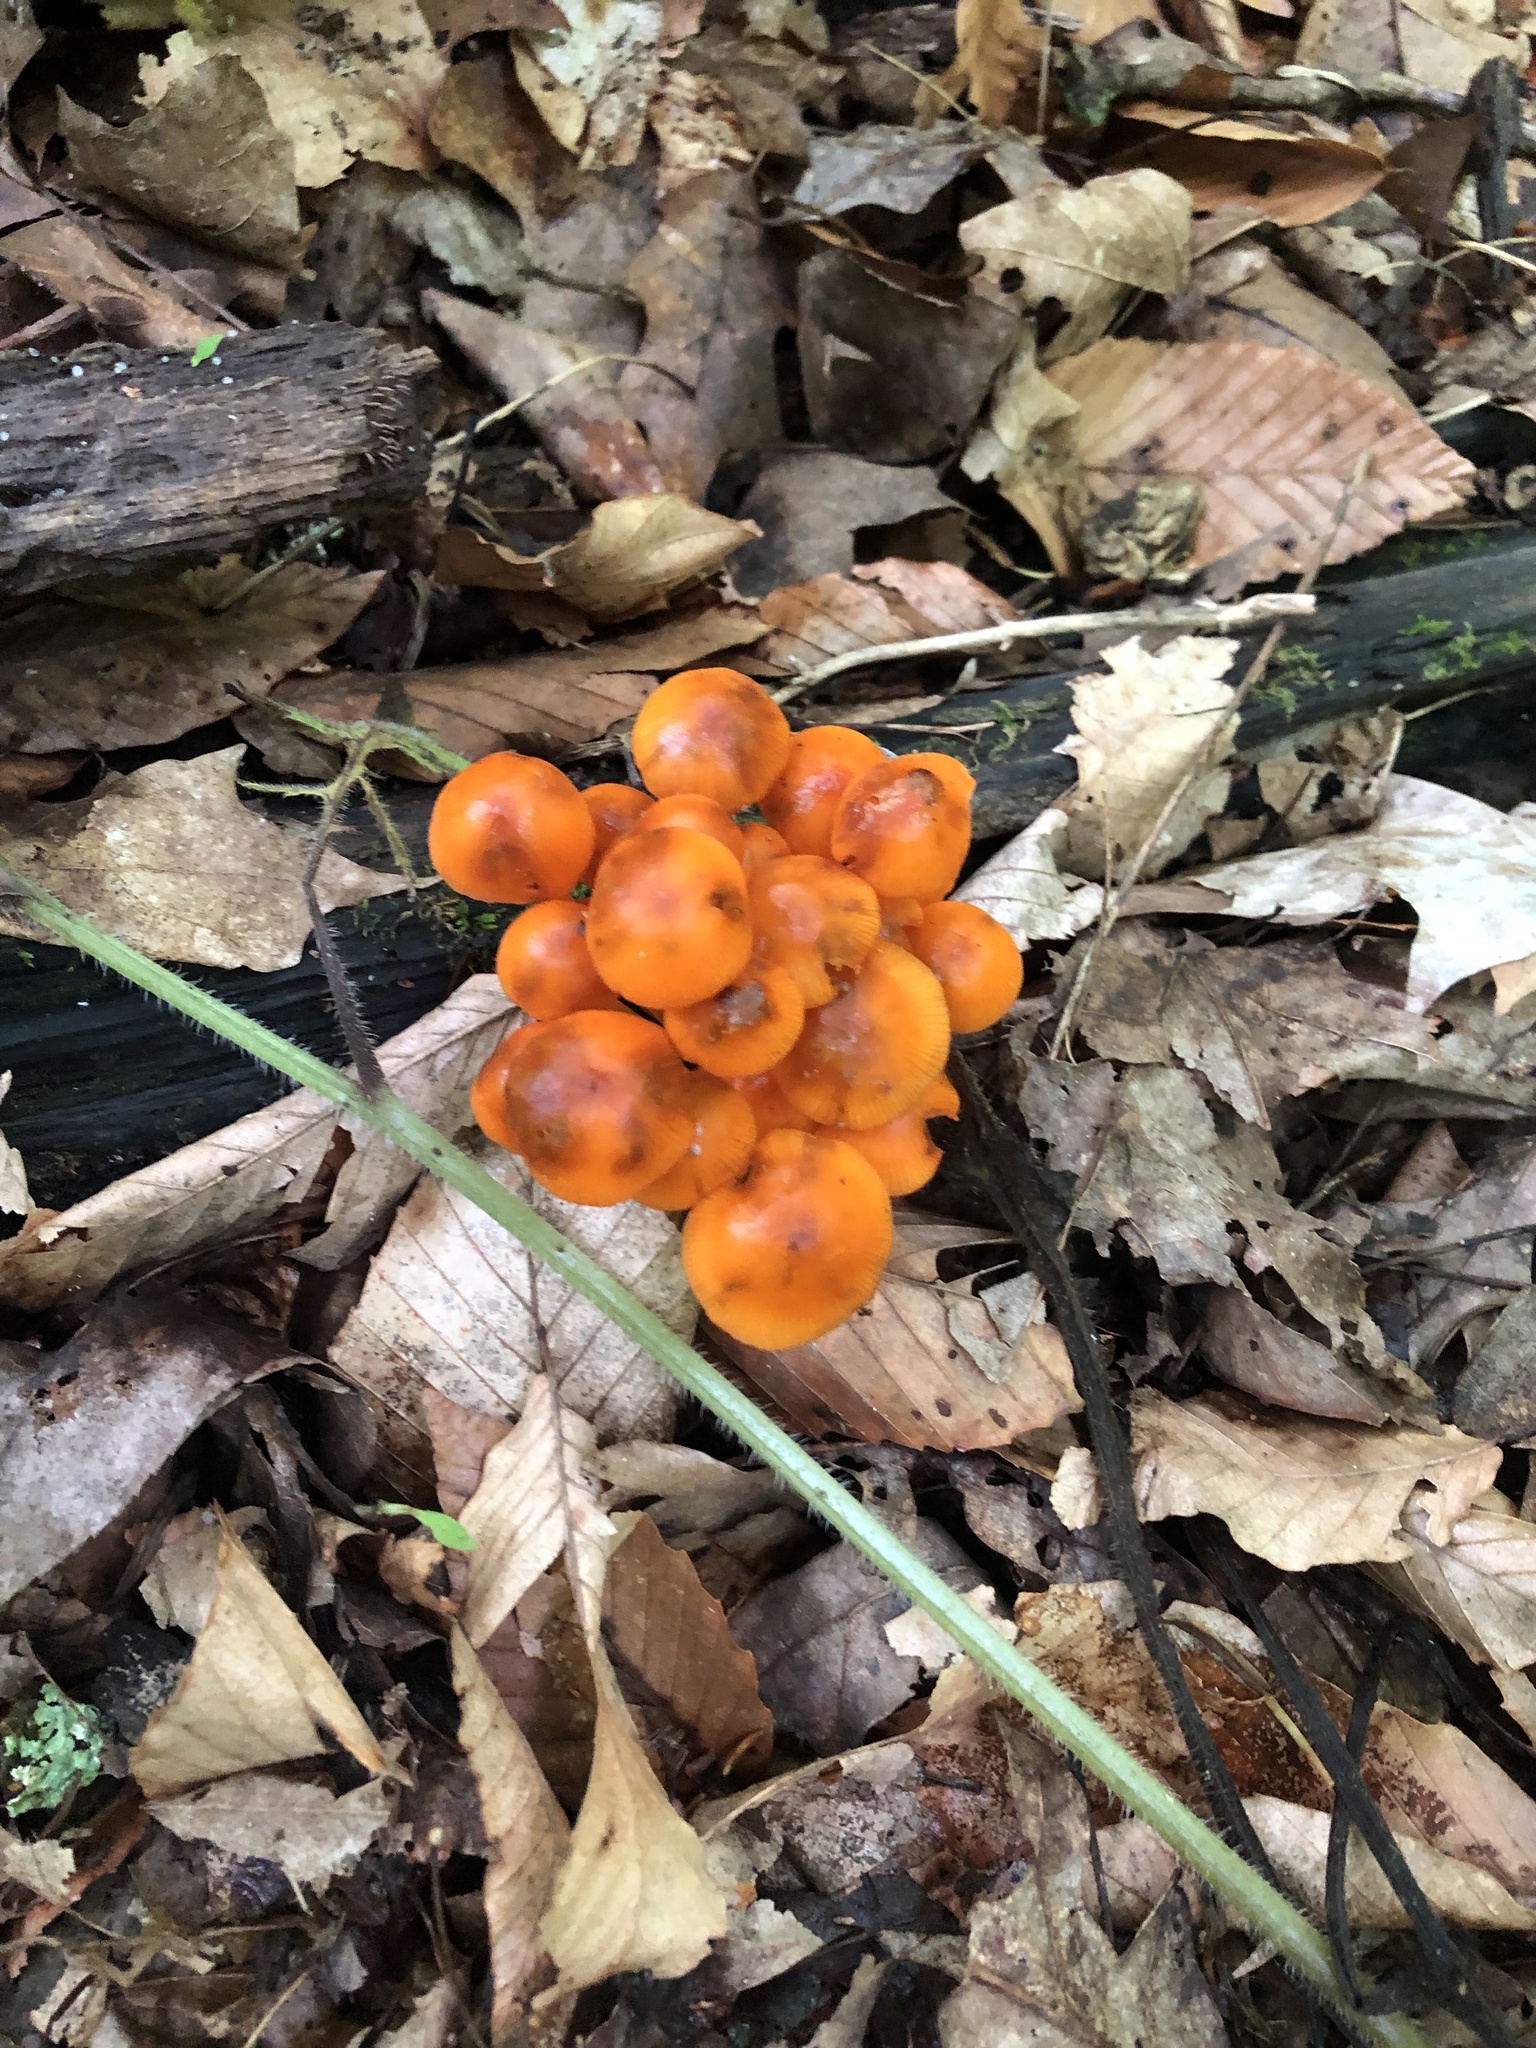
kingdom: Fungi
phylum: Basidiomycota
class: Agaricomycetes
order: Agaricales
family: Mycenaceae
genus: Mycena
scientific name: Mycena leaiana
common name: Orange mycena
